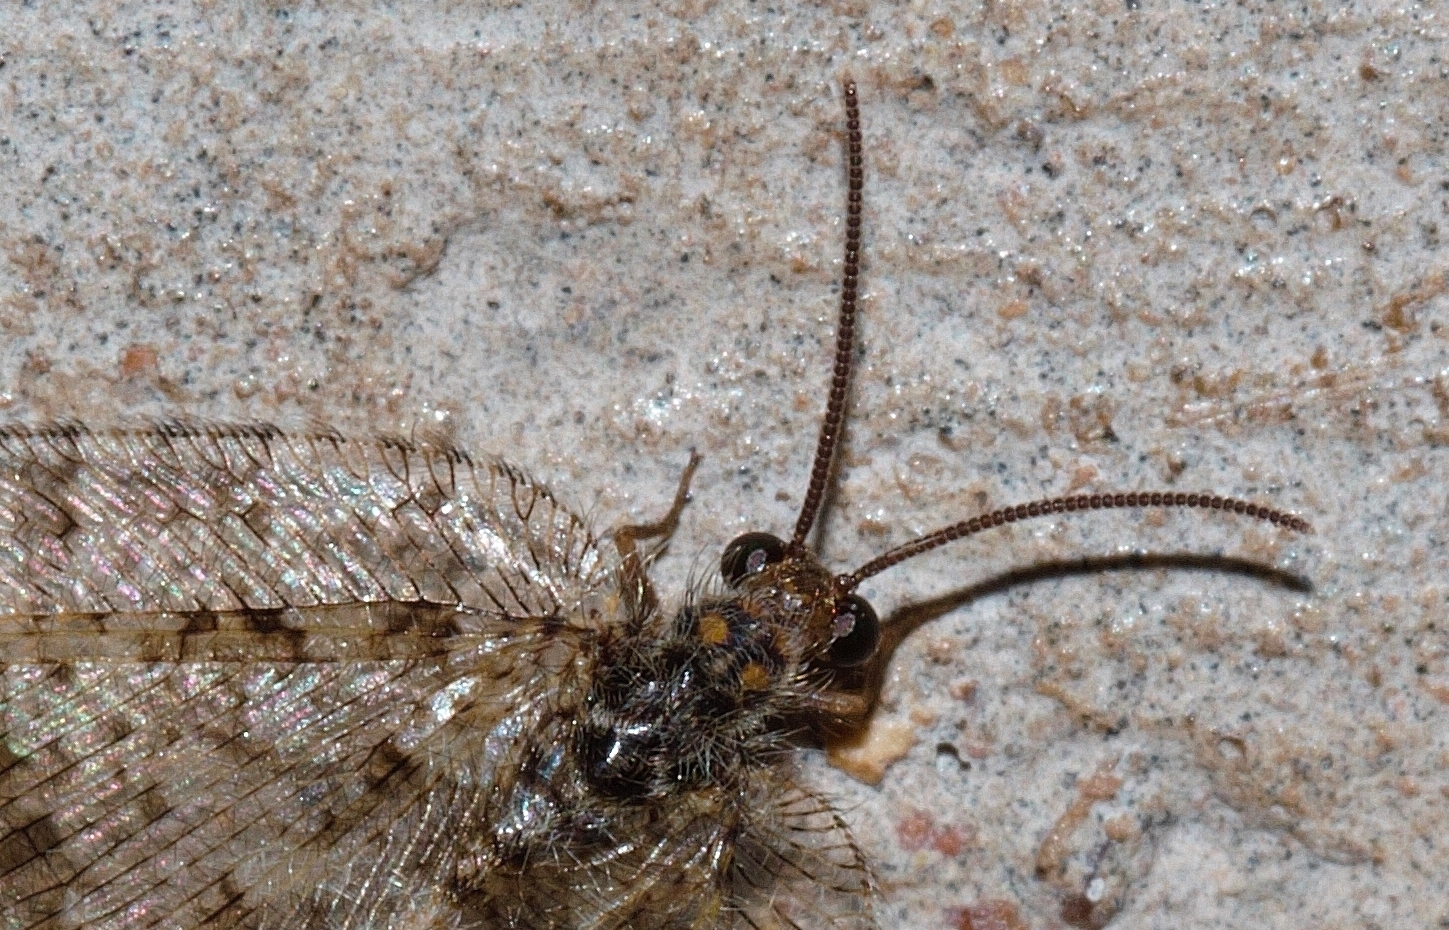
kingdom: Animalia
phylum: Arthropoda
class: Insecta
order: Neuroptera
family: Psychopsidae
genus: Silveira
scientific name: Silveira marshalli
